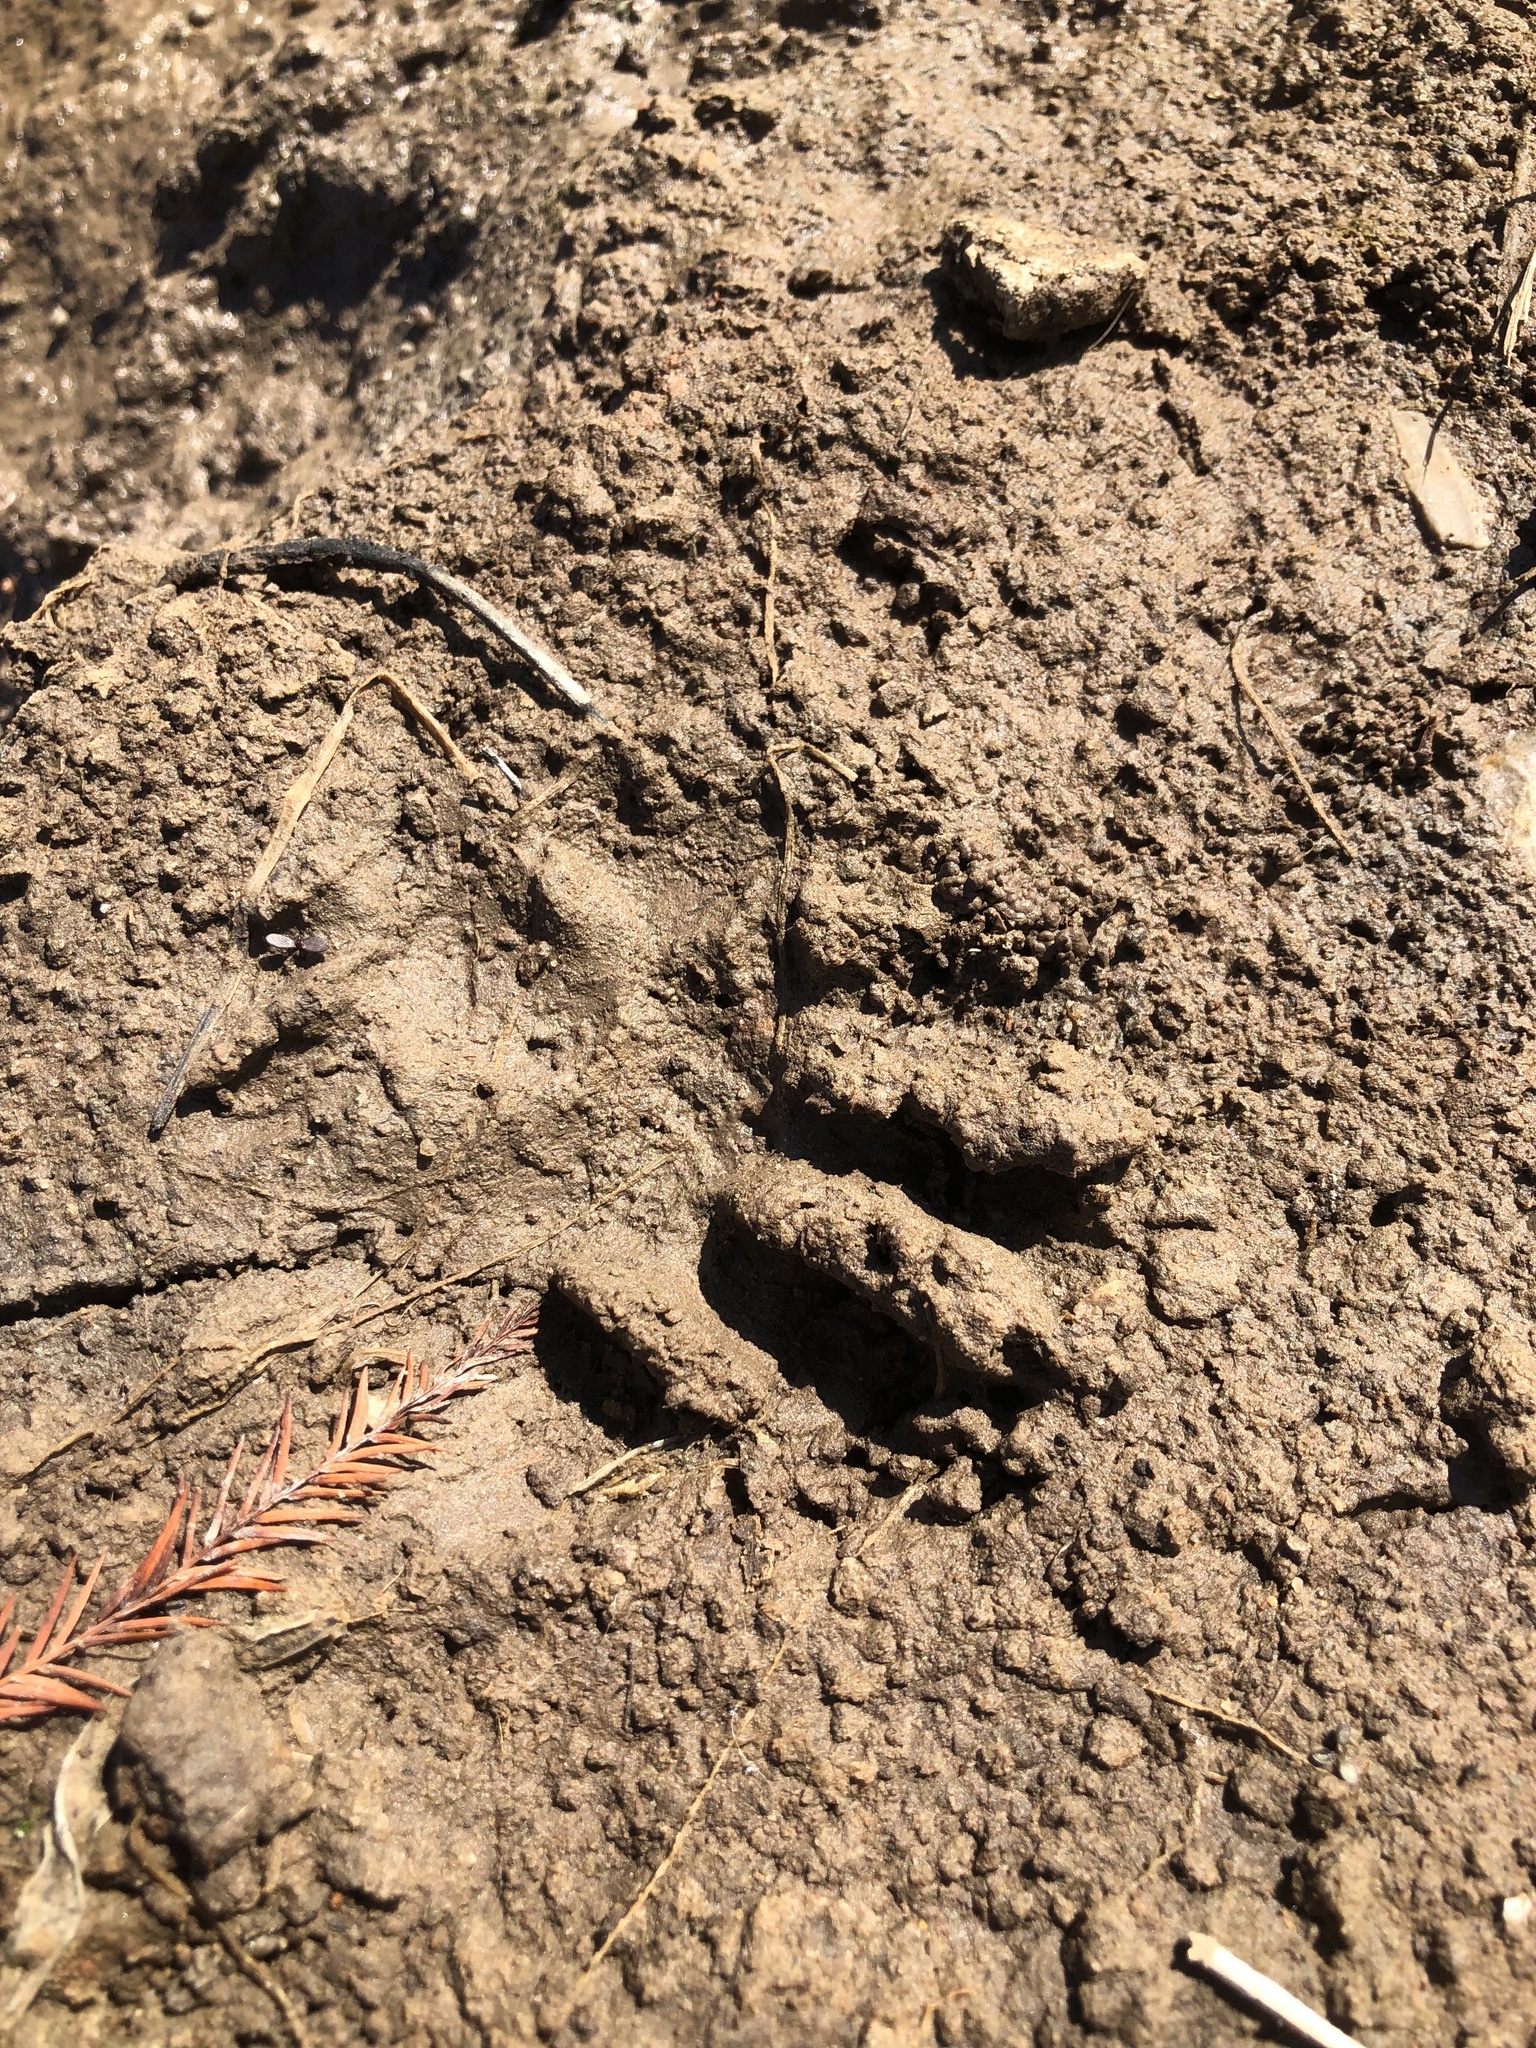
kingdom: Animalia
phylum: Chordata
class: Mammalia
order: Carnivora
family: Procyonidae
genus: Procyon
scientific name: Procyon lotor
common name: Raccoon
